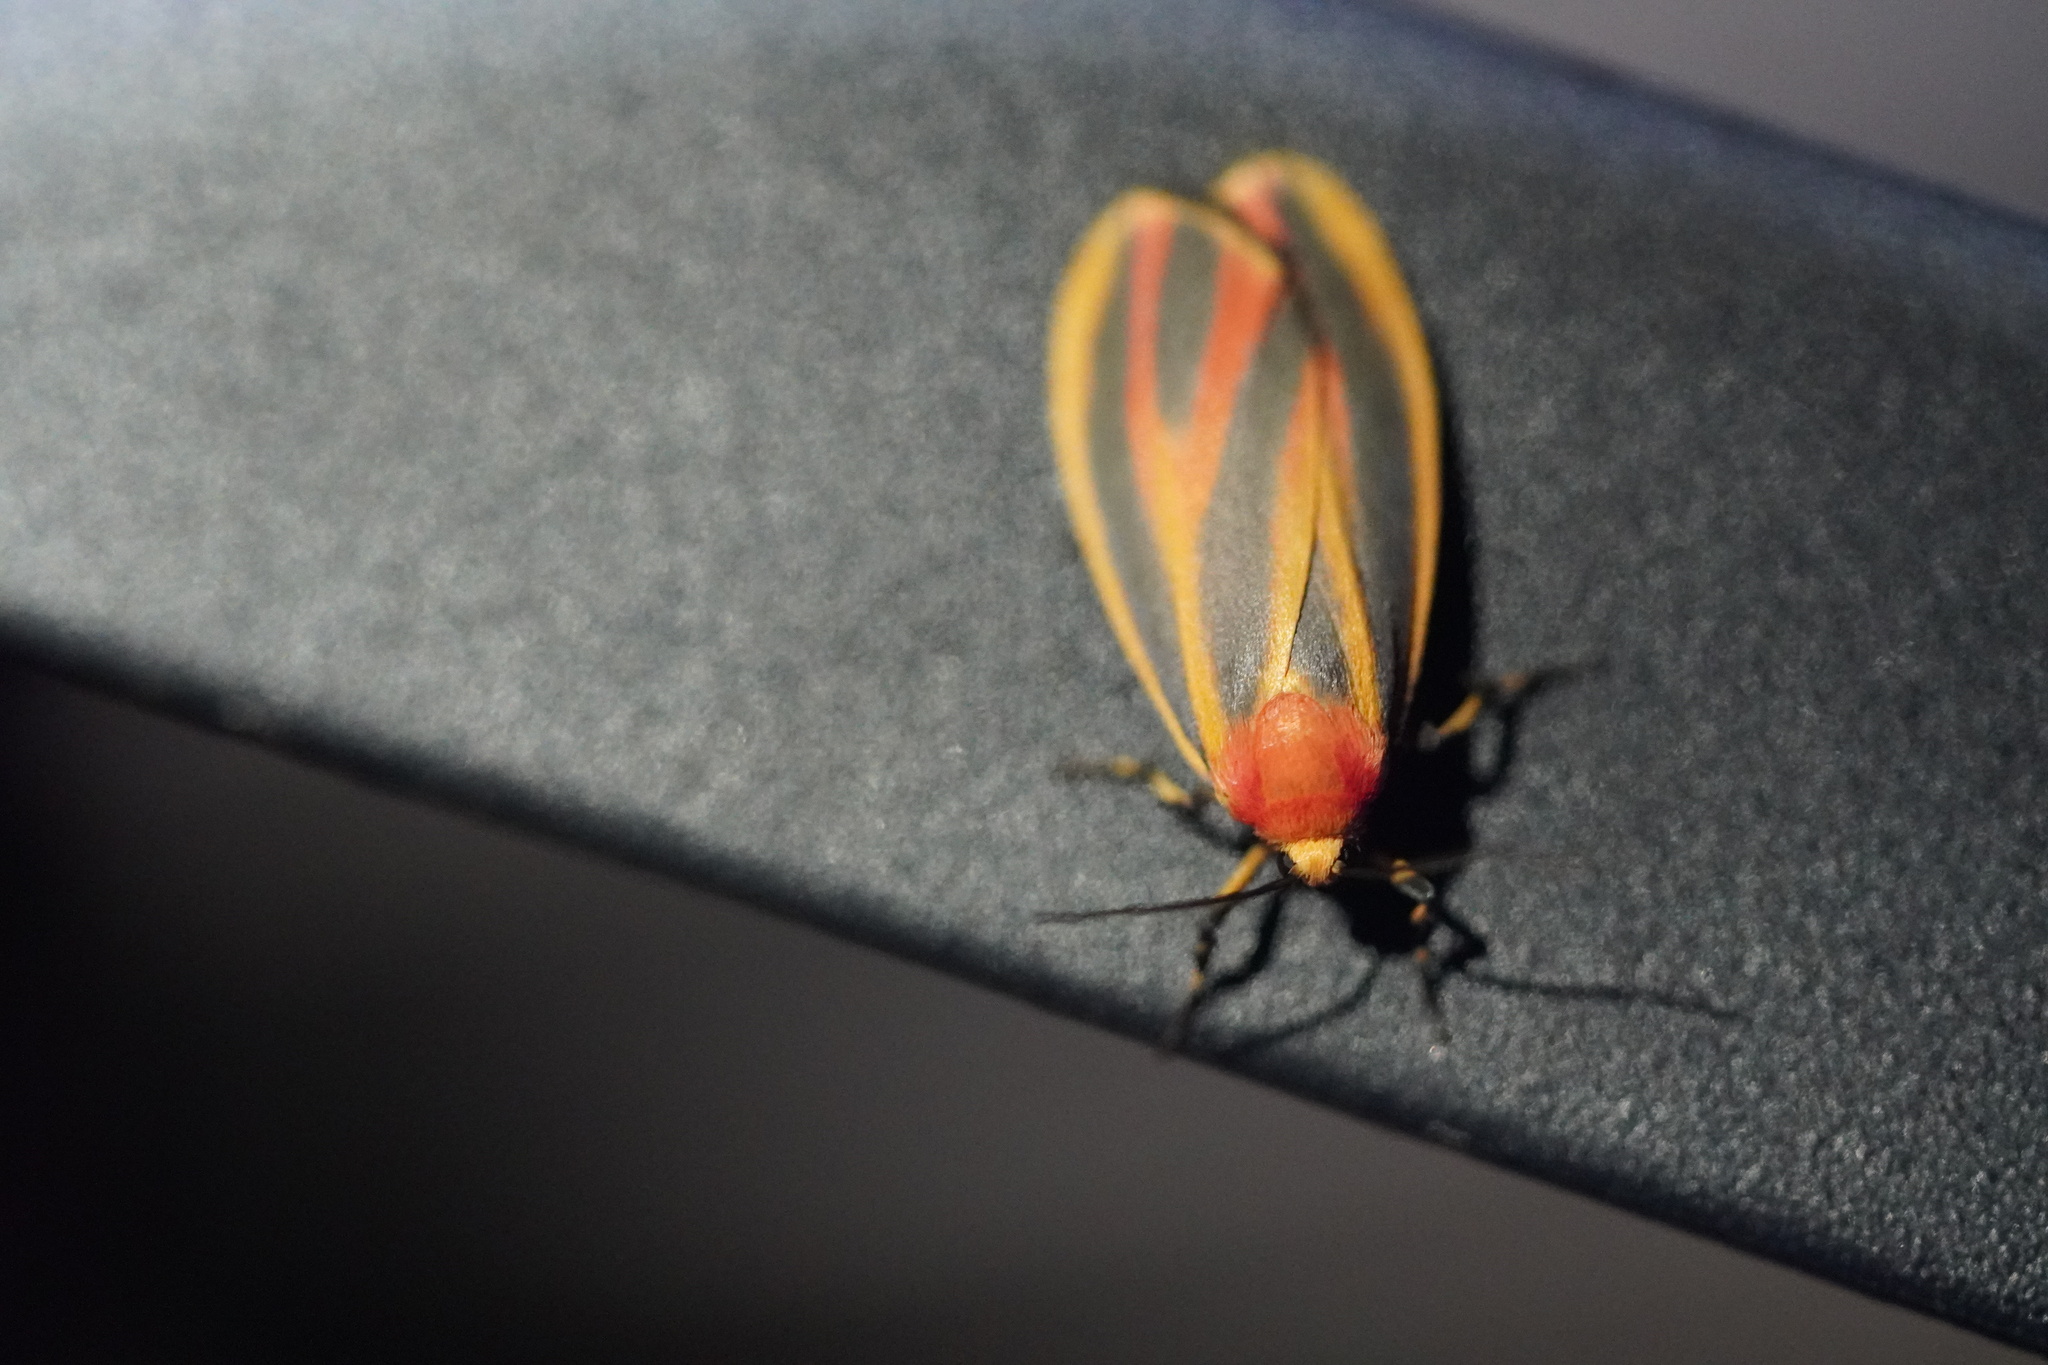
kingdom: Animalia
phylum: Arthropoda
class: Insecta
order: Lepidoptera
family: Erebidae
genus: Hypoprepia
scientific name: Hypoprepia fucosa
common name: Painted lichen moth
